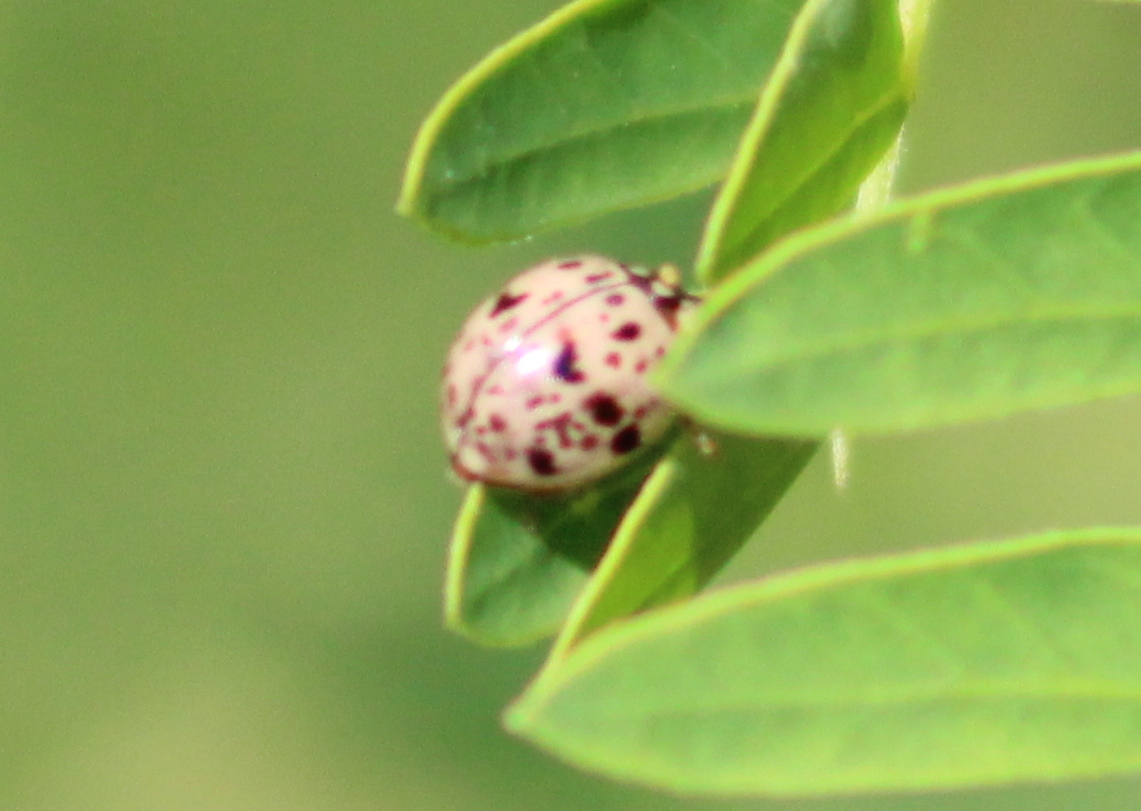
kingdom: Animalia
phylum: Arthropoda
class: Insecta
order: Coleoptera
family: Coccinellidae
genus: Olla
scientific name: Olla v-nigrum
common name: Ashy gray lady beetle
